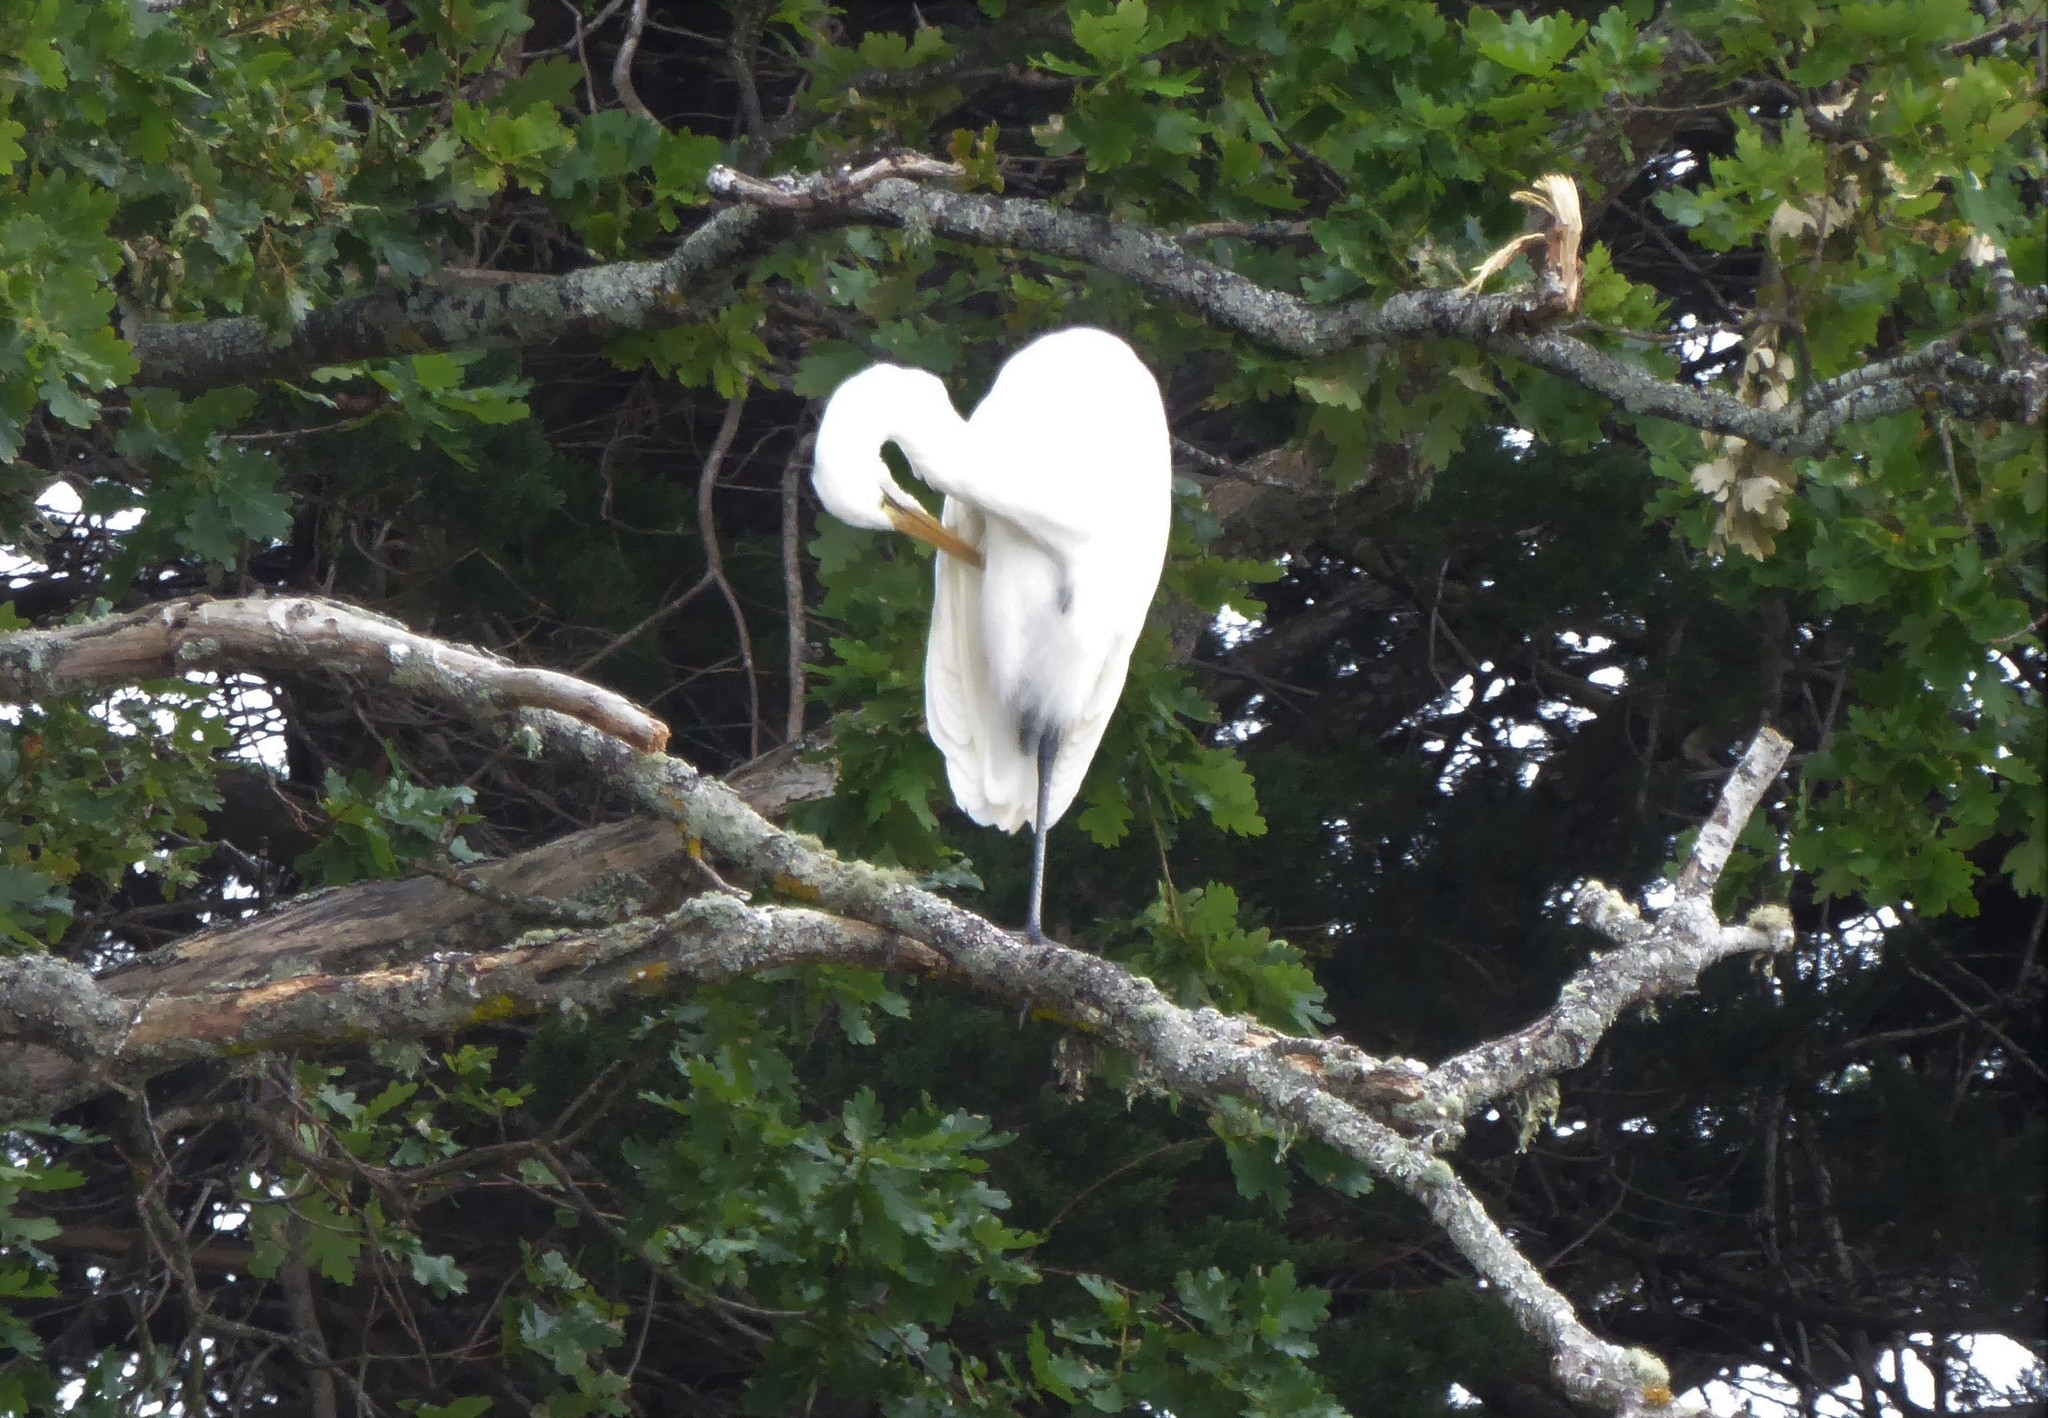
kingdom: Animalia
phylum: Chordata
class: Aves
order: Pelecaniformes
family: Ardeidae
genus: Ardea
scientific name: Ardea modesta
